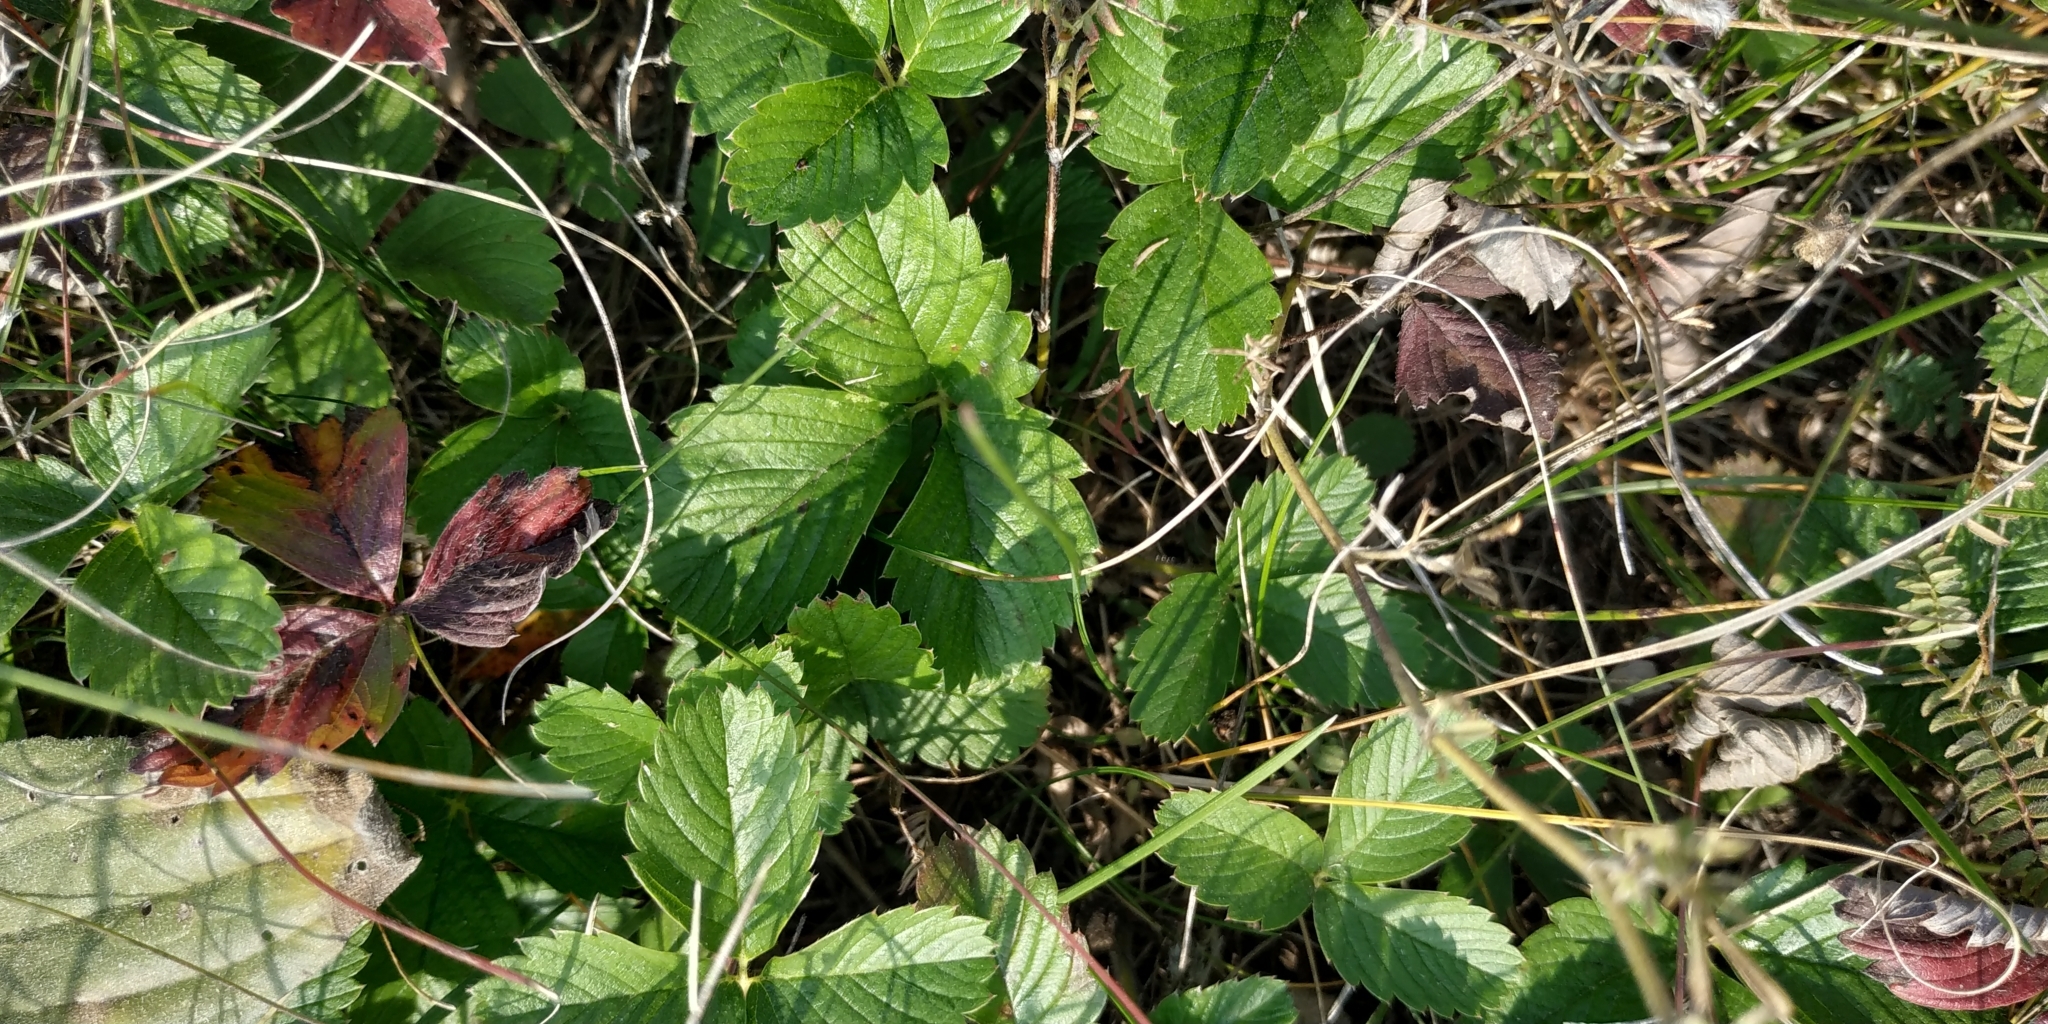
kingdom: Plantae
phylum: Tracheophyta
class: Magnoliopsida
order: Rosales
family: Rosaceae
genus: Fragaria
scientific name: Fragaria viridis
